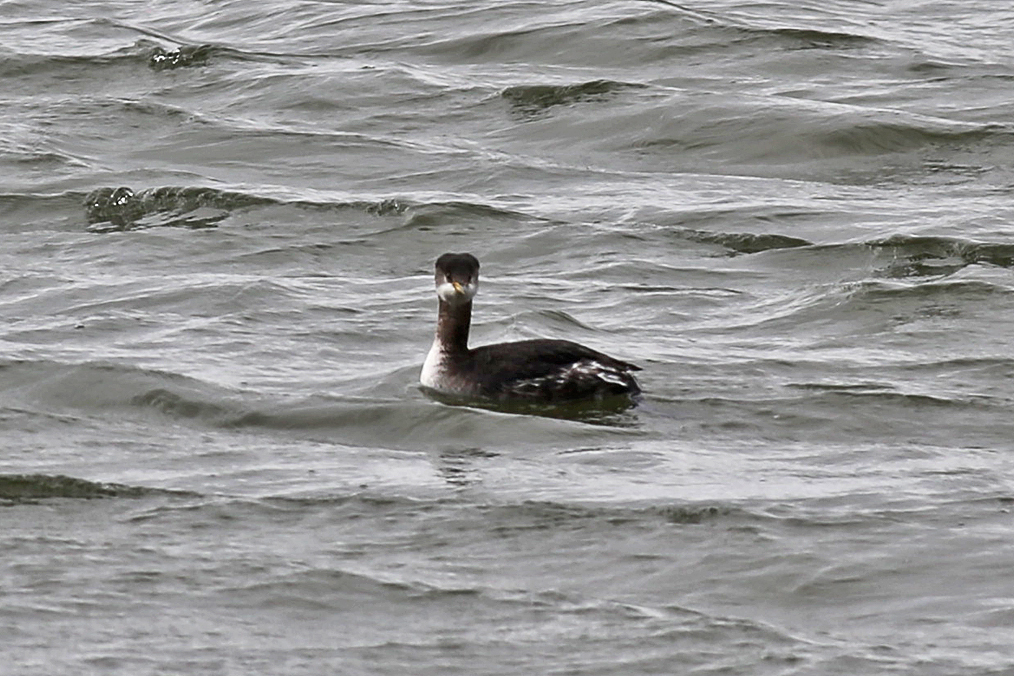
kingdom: Animalia
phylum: Chordata
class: Aves
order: Podicipediformes
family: Podicipedidae
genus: Podiceps
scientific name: Podiceps grisegena
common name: Red-necked grebe
